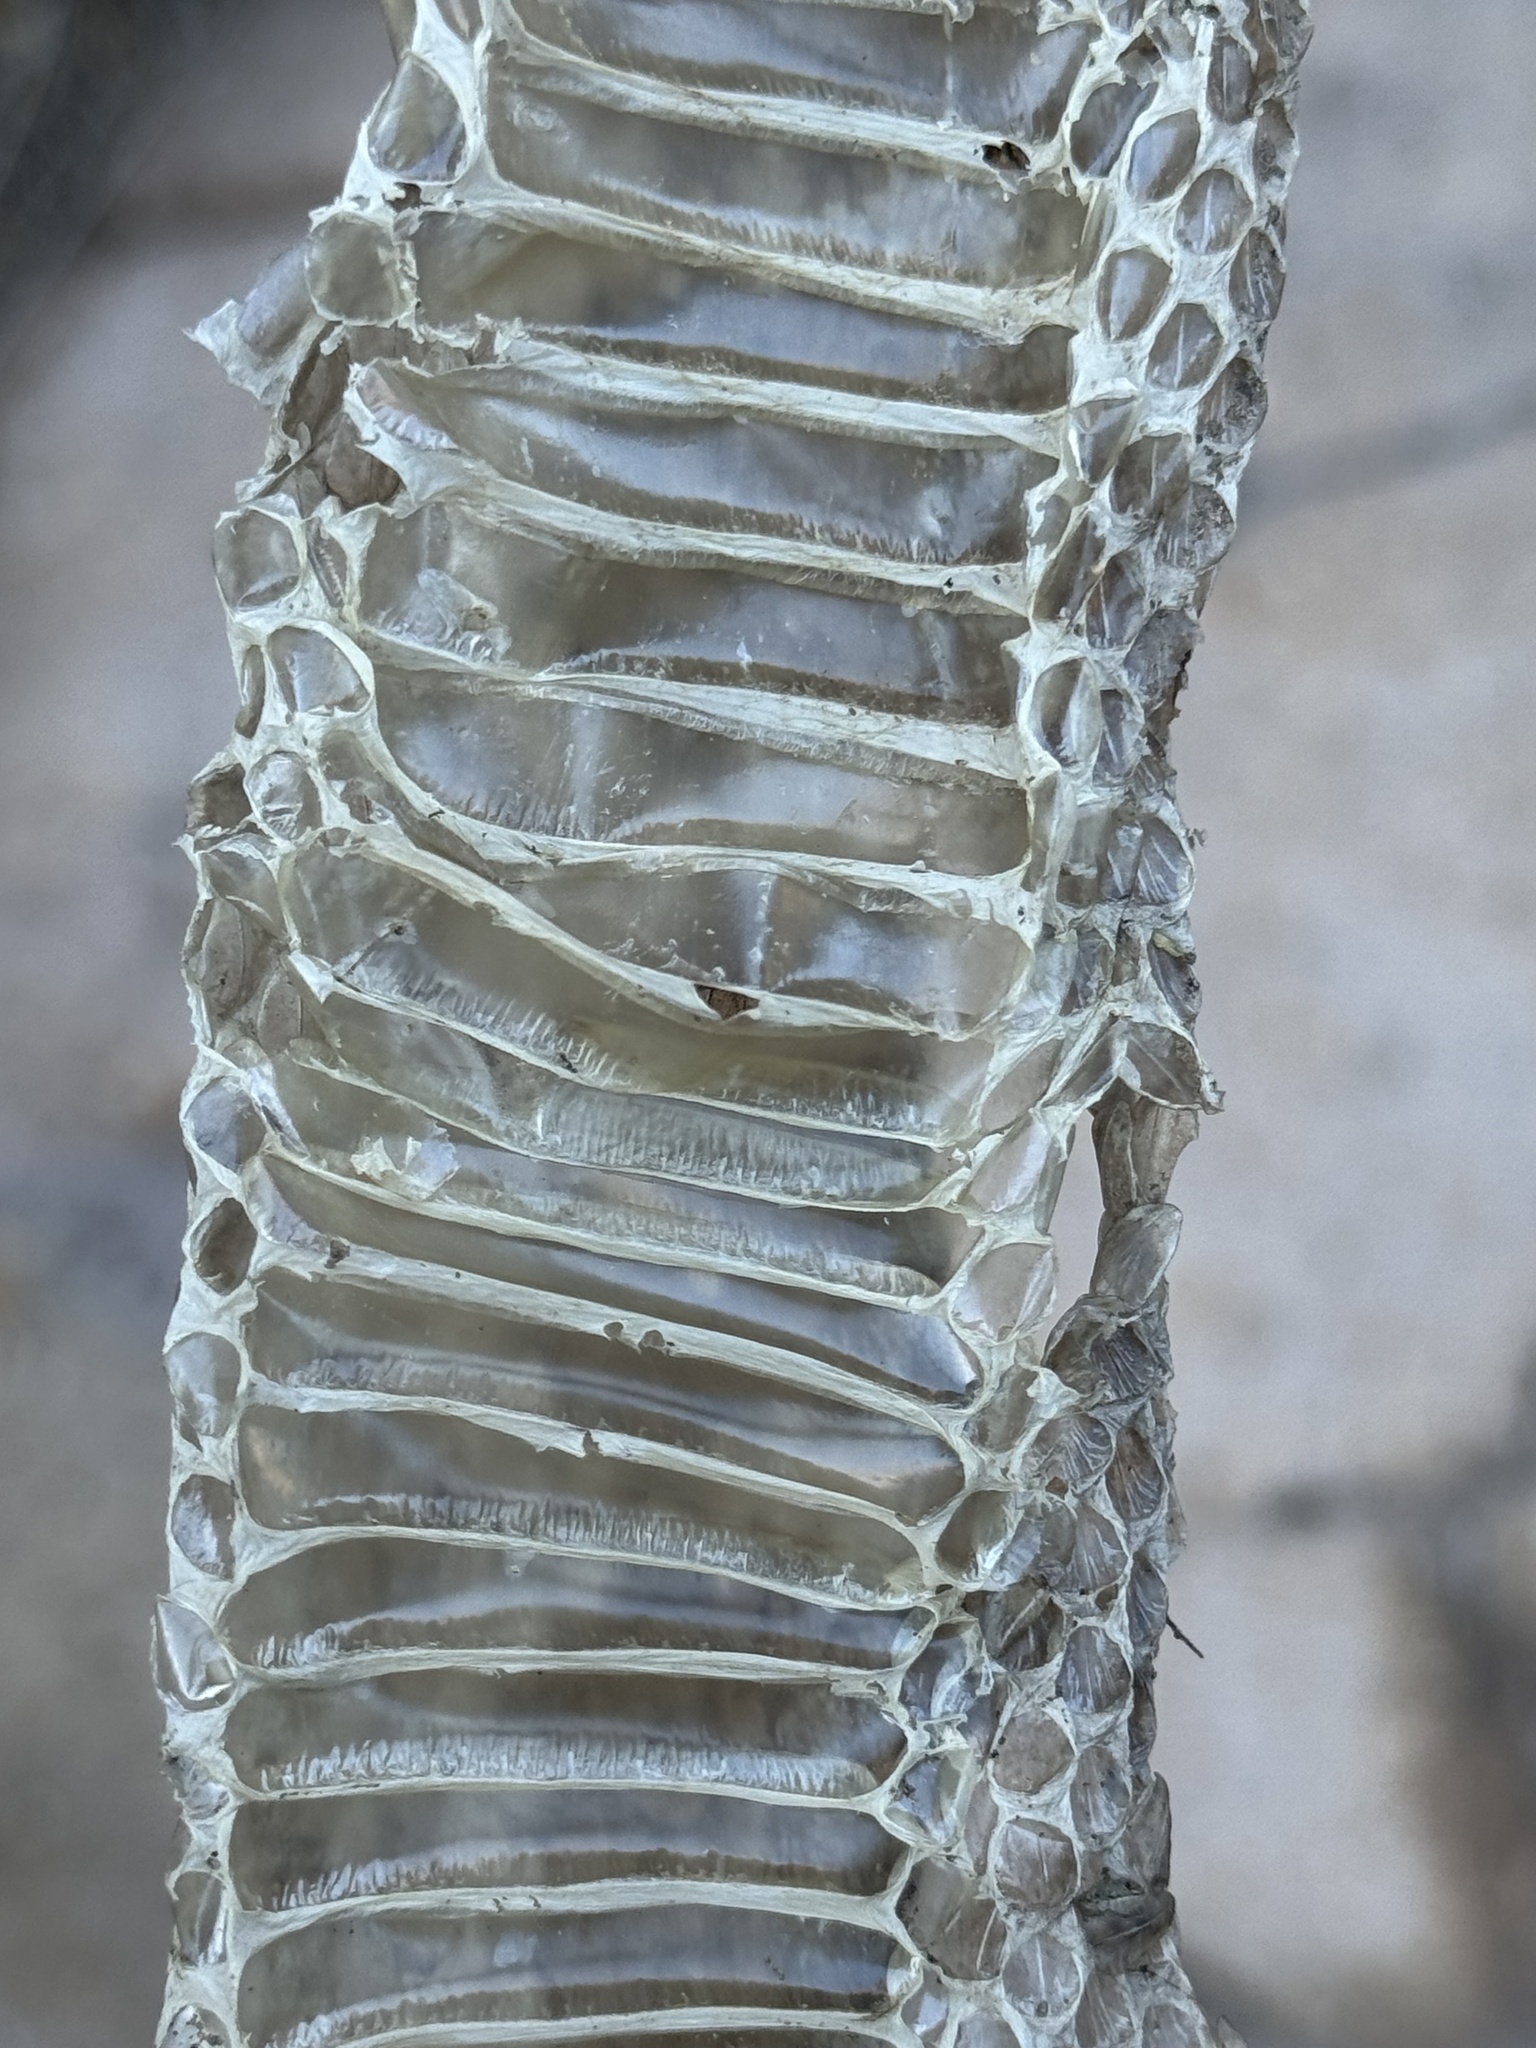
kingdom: Animalia
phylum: Chordata
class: Squamata
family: Viperidae
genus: Crotalus
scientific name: Crotalus cerberus
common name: Arizona black rattlesnake
